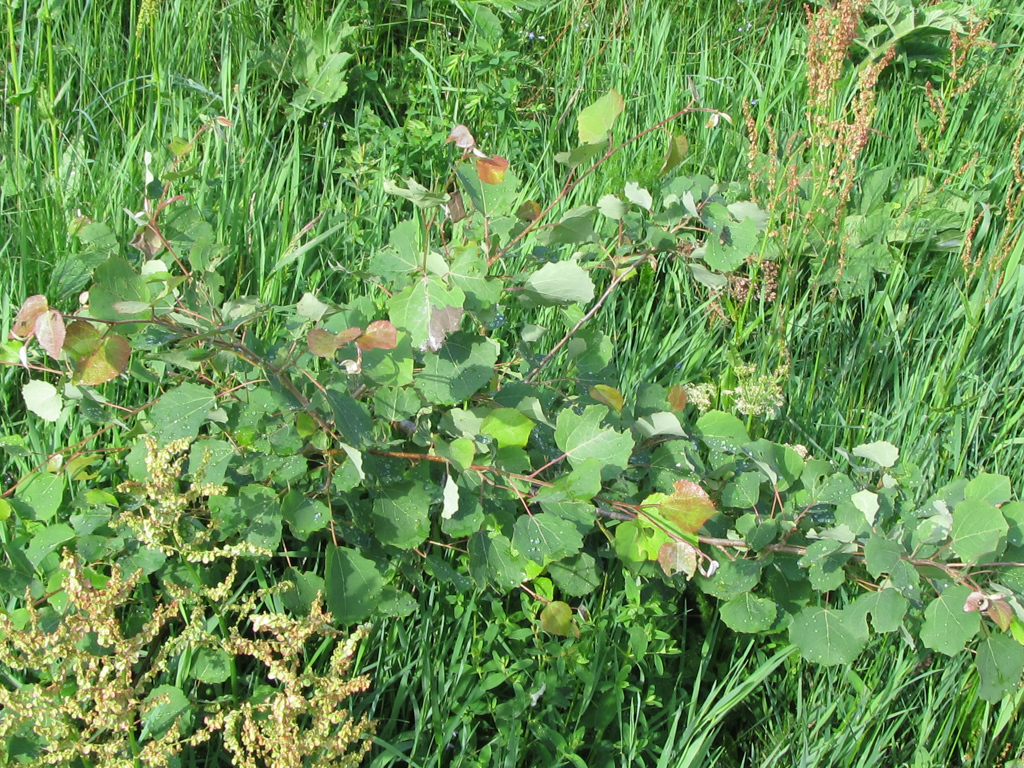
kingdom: Plantae
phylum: Tracheophyta
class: Magnoliopsida
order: Malpighiales
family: Salicaceae
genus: Populus
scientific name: Populus tremula
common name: European aspen
